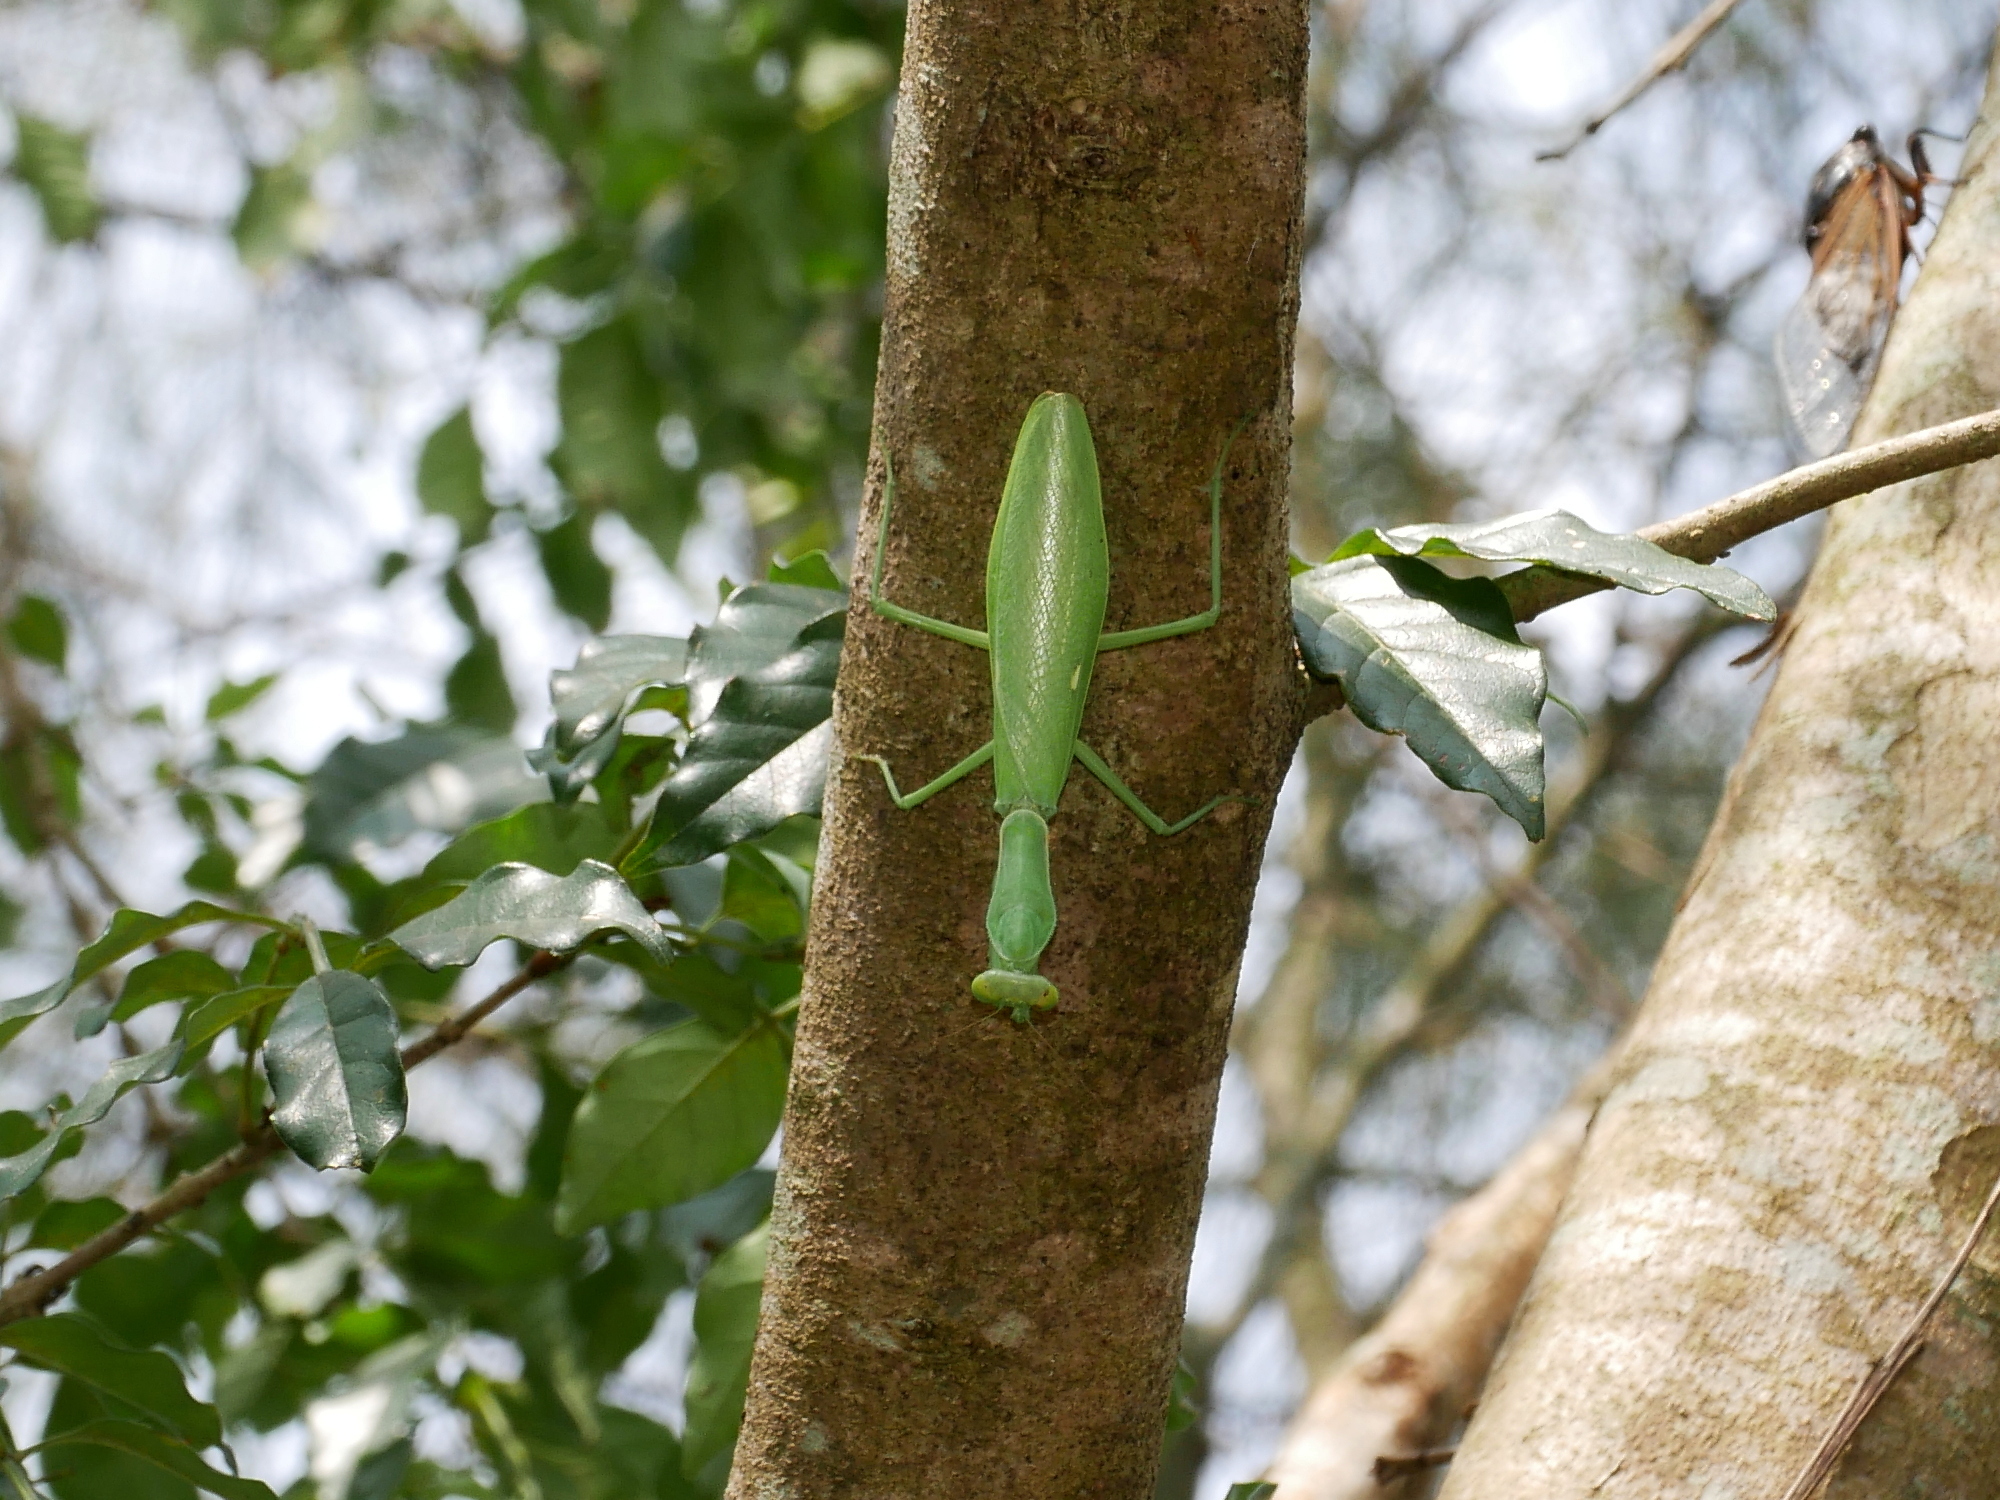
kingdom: Animalia
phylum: Arthropoda
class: Insecta
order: Mantodea
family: Mantidae
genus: Hierodula
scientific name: Hierodula patellifera
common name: Asian mantis
